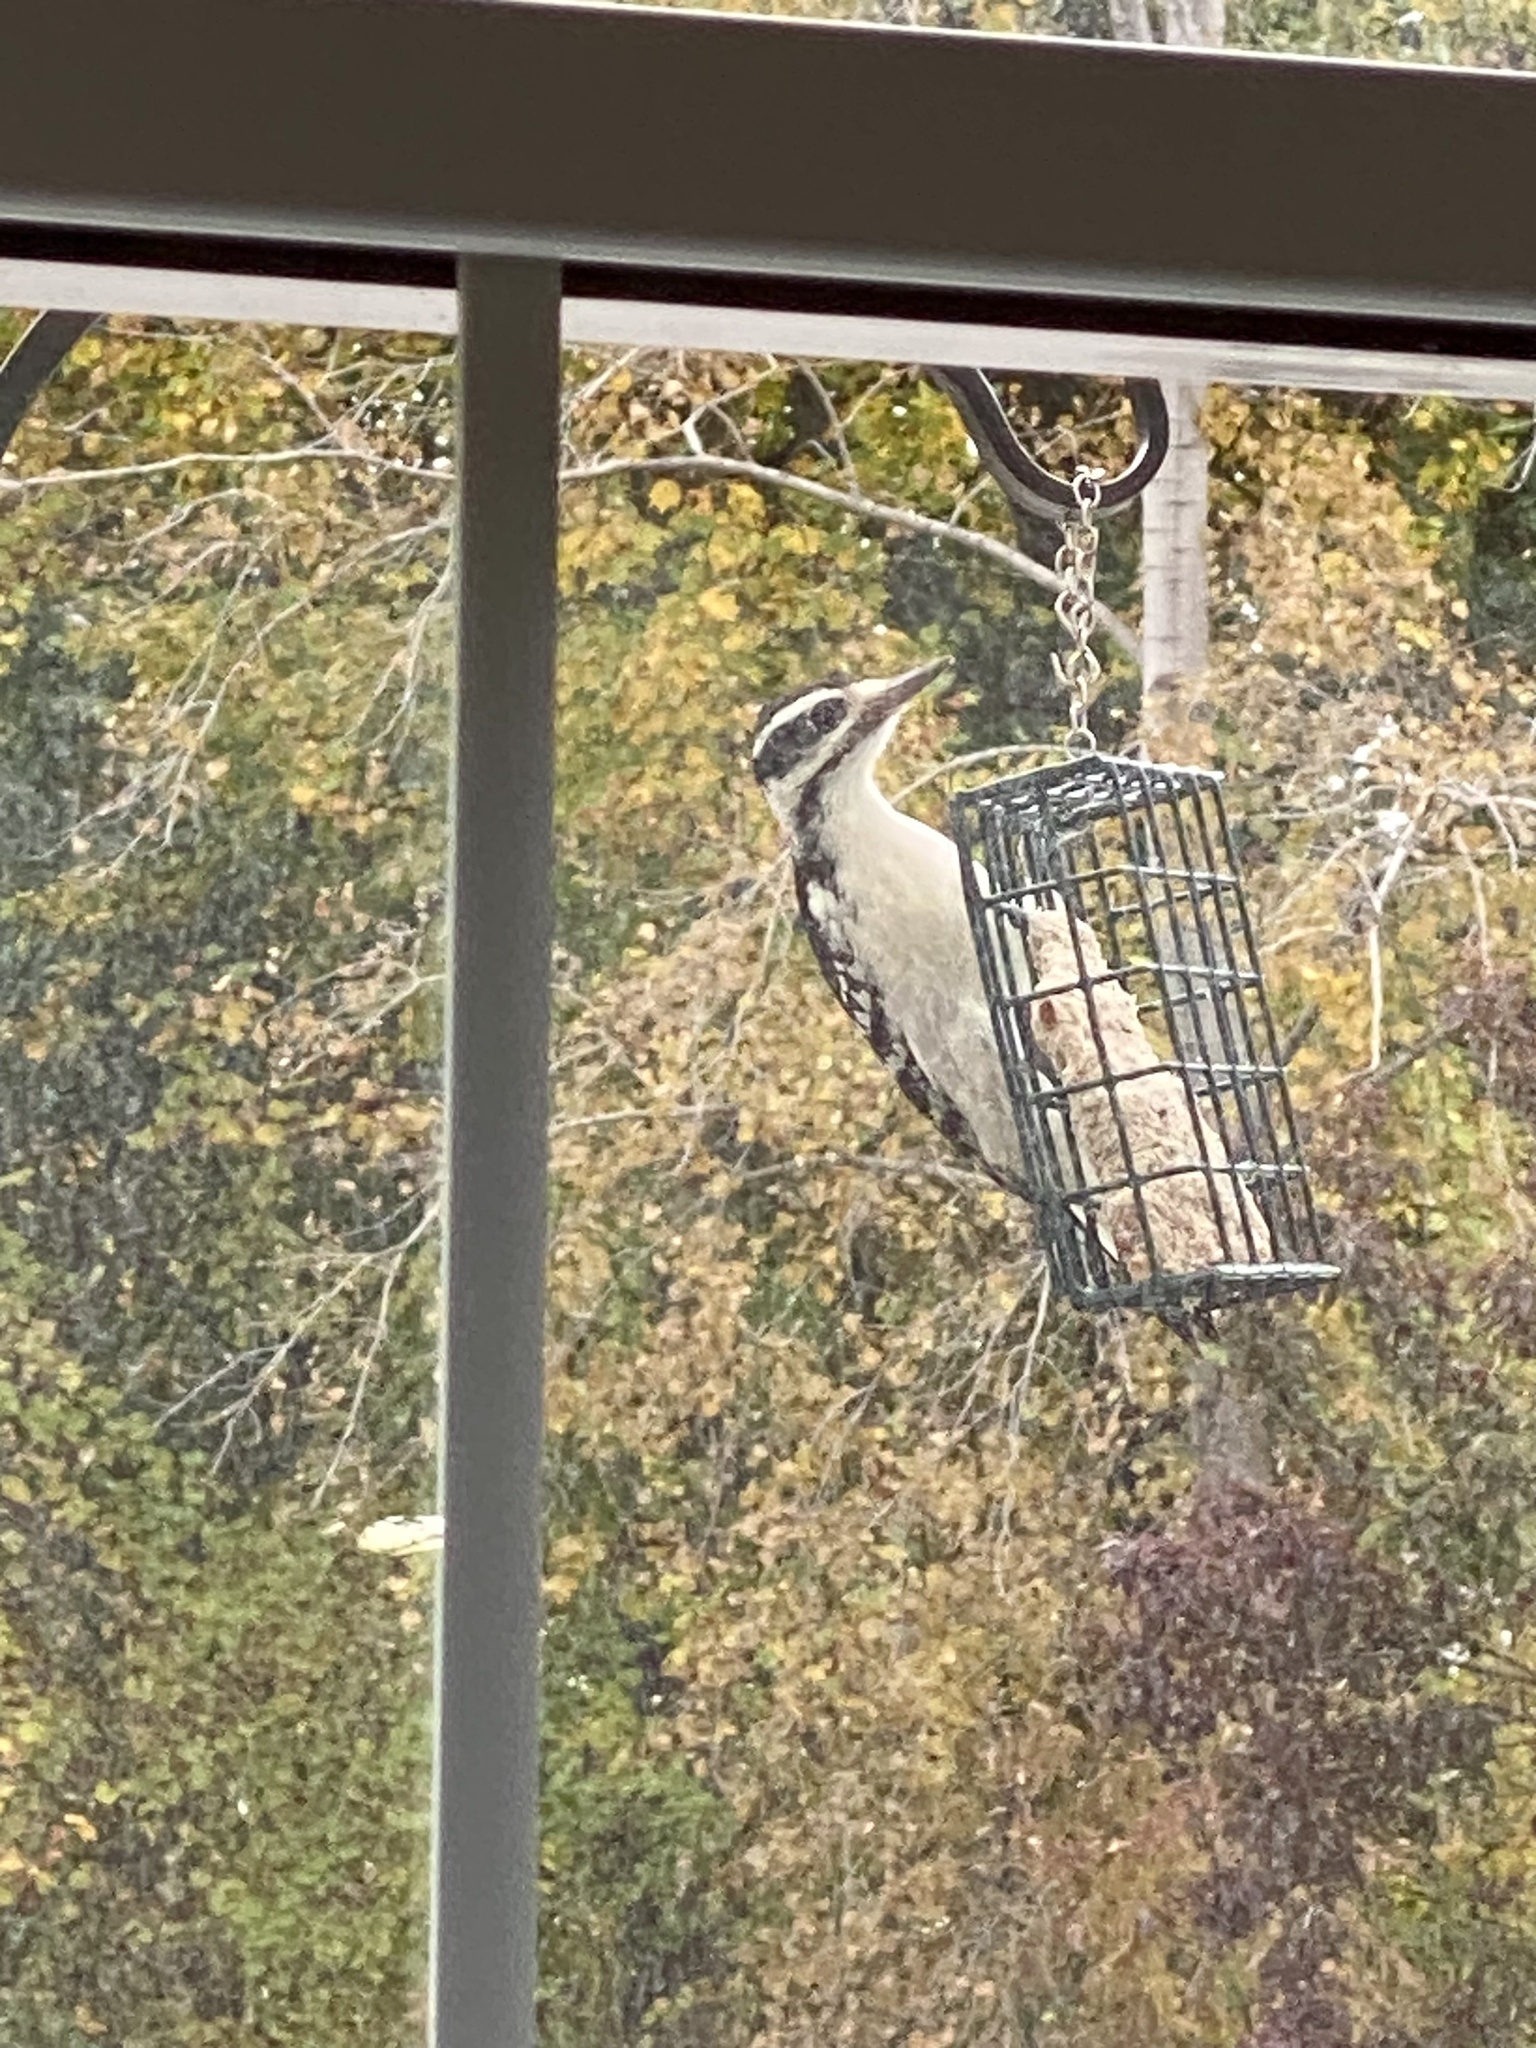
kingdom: Animalia
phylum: Chordata
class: Aves
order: Piciformes
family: Picidae
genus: Leuconotopicus
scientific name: Leuconotopicus villosus
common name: Hairy woodpecker
